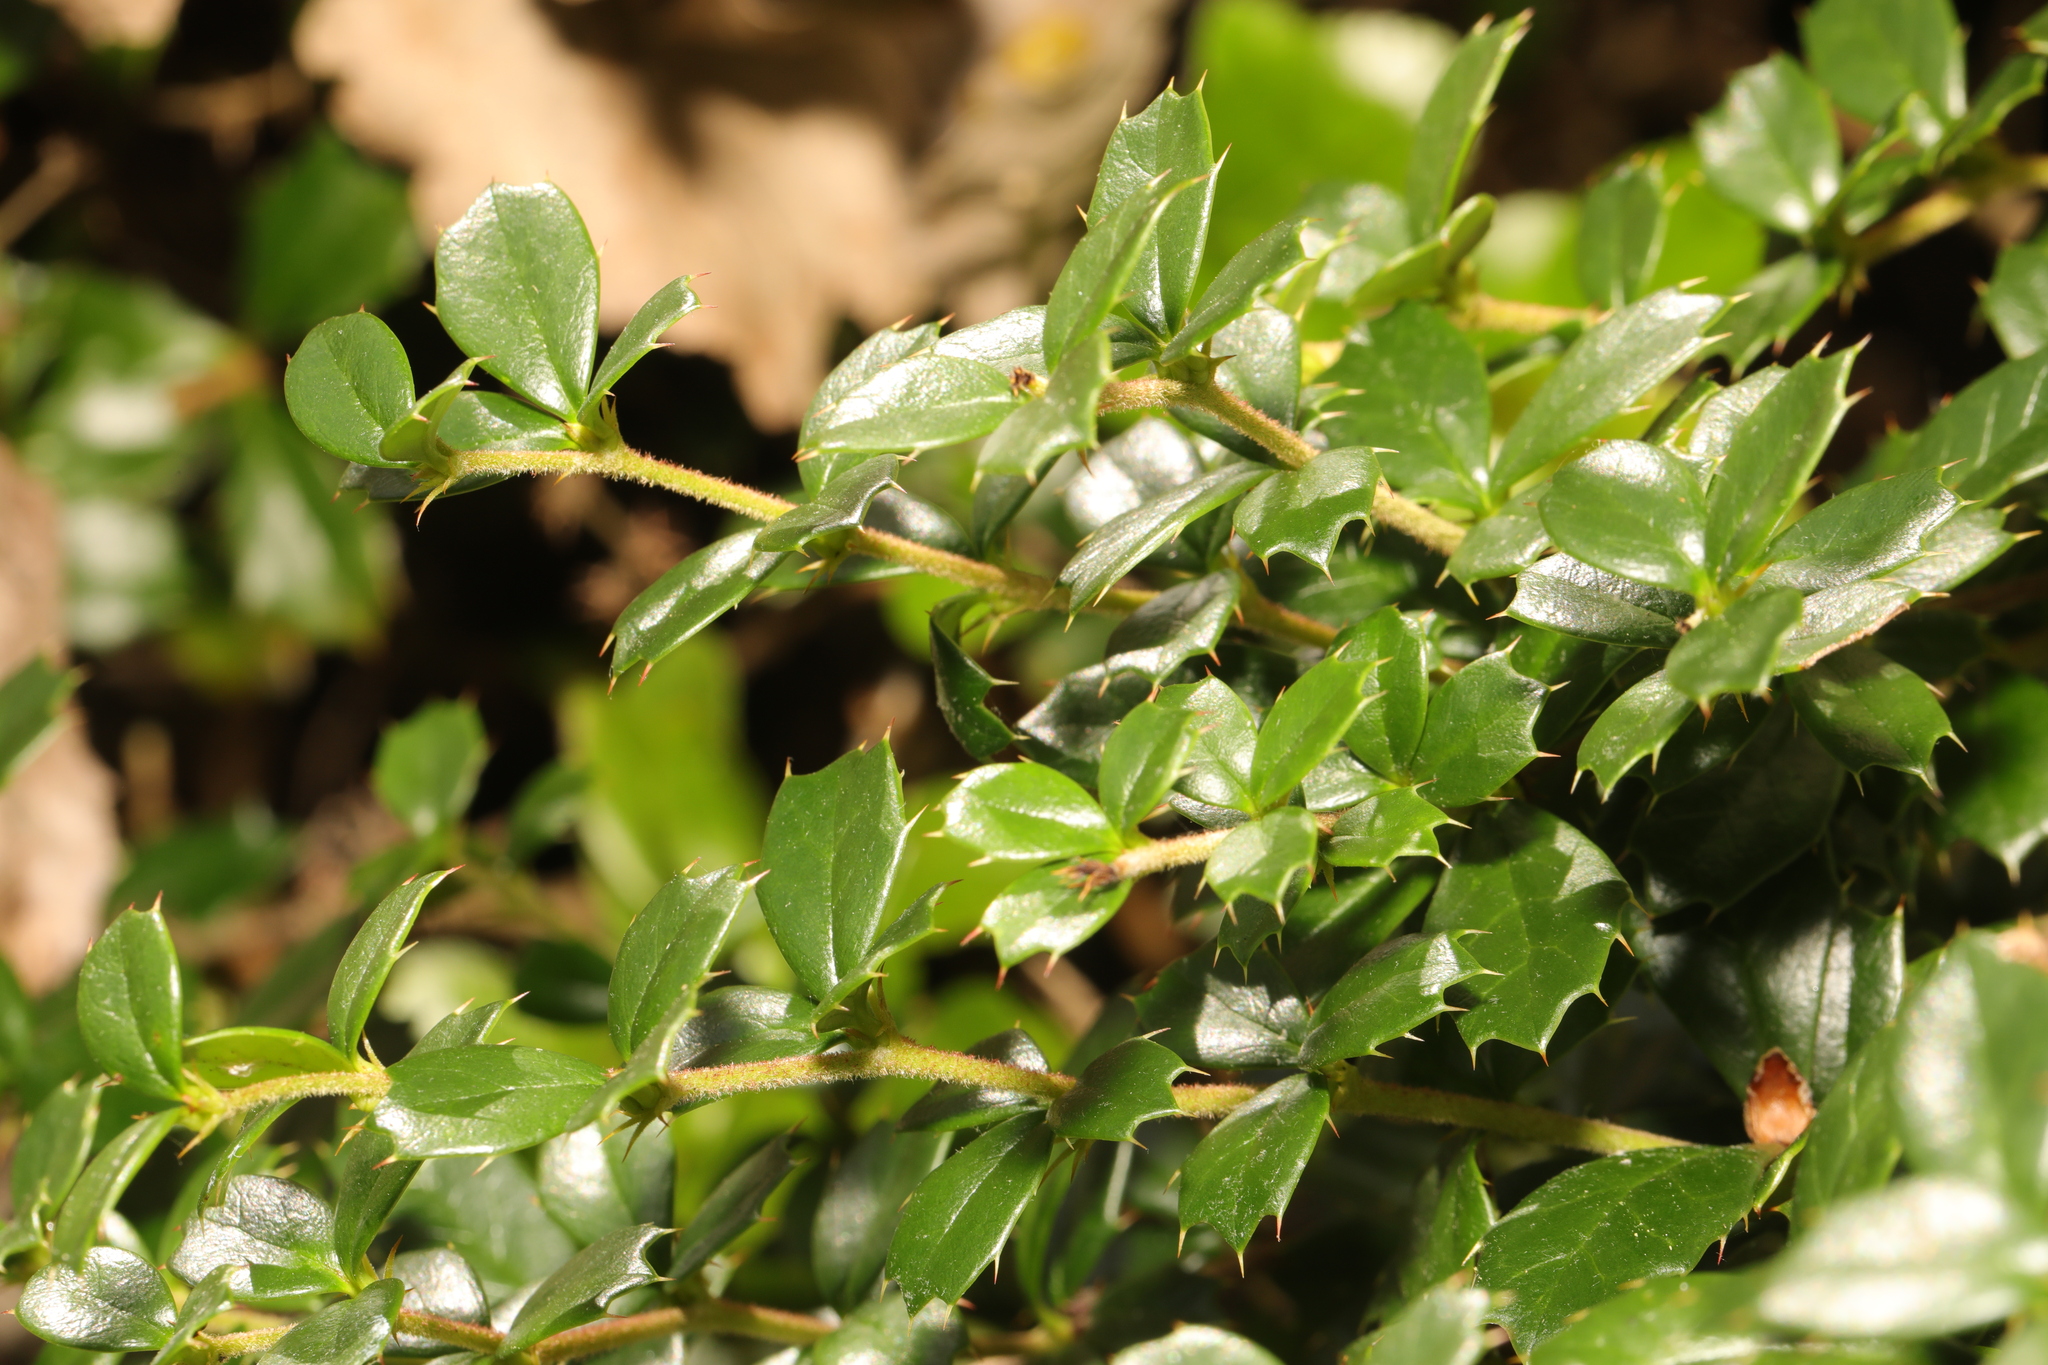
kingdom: Plantae
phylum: Tracheophyta
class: Magnoliopsida
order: Ranunculales
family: Berberidaceae
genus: Berberis
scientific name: Berberis darwinii
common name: Darwin's barberry
